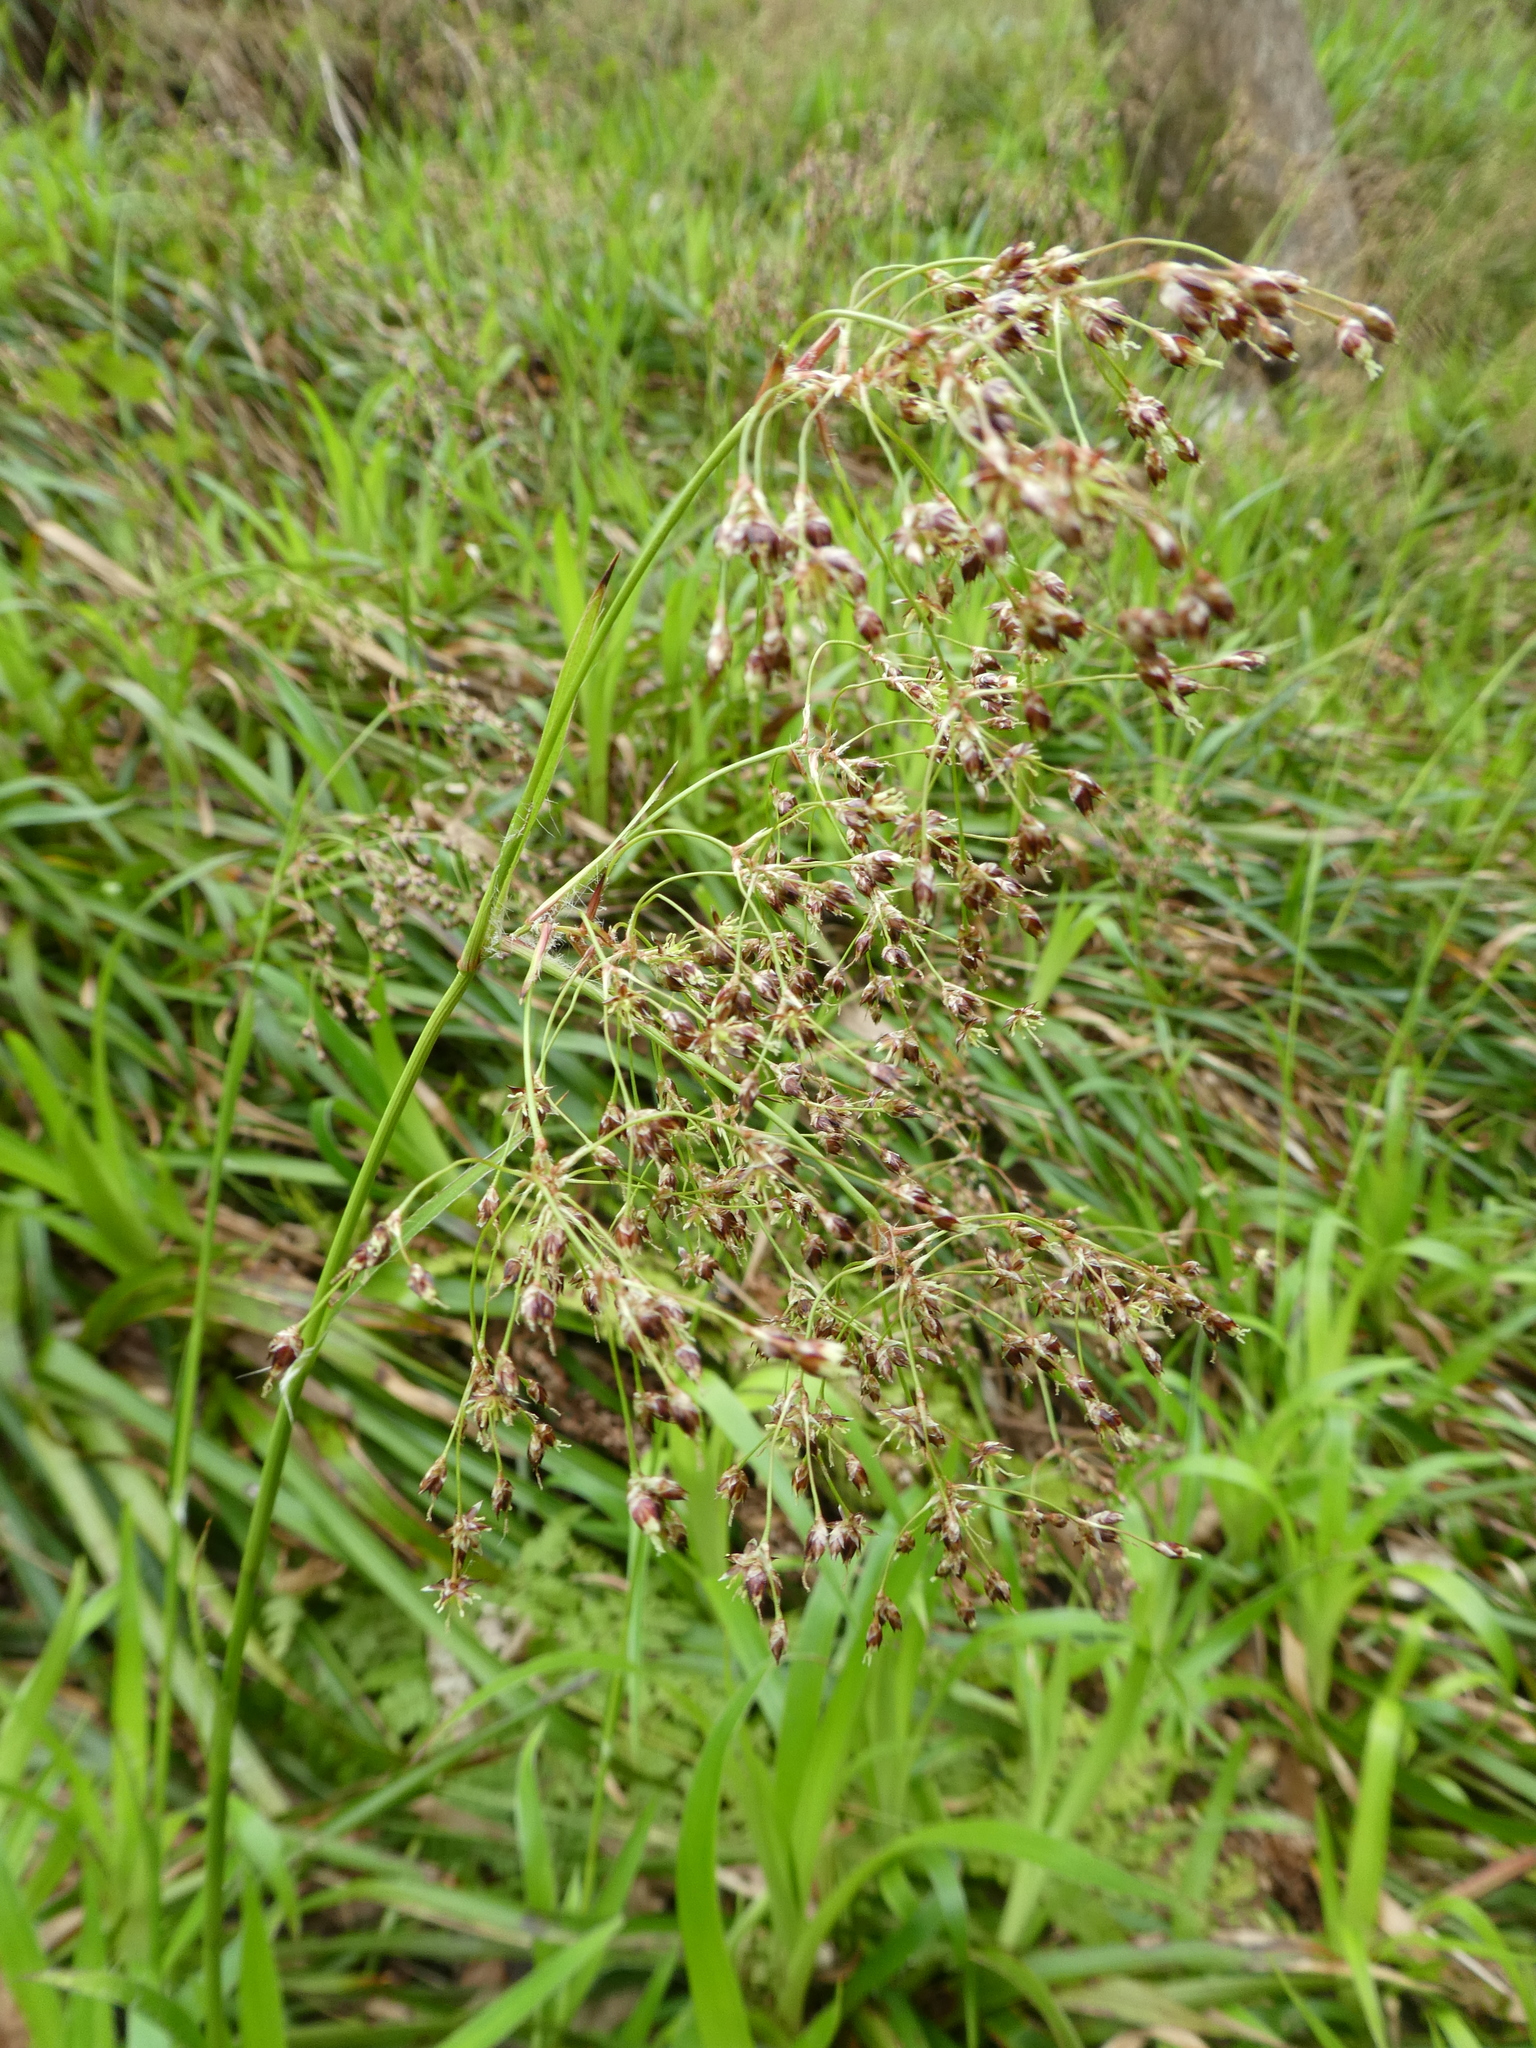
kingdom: Plantae
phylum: Tracheophyta
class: Liliopsida
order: Poales
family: Juncaceae
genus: Luzula
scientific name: Luzula sylvatica
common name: Great wood-rush
